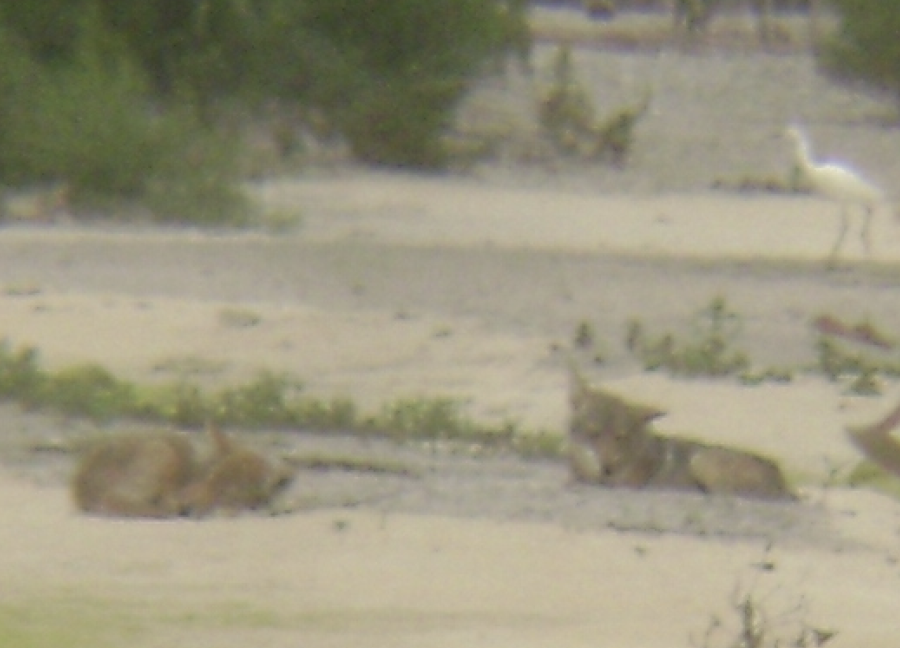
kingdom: Animalia
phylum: Chordata
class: Mammalia
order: Carnivora
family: Canidae
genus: Canis
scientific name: Canis latrans
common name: Coyote
